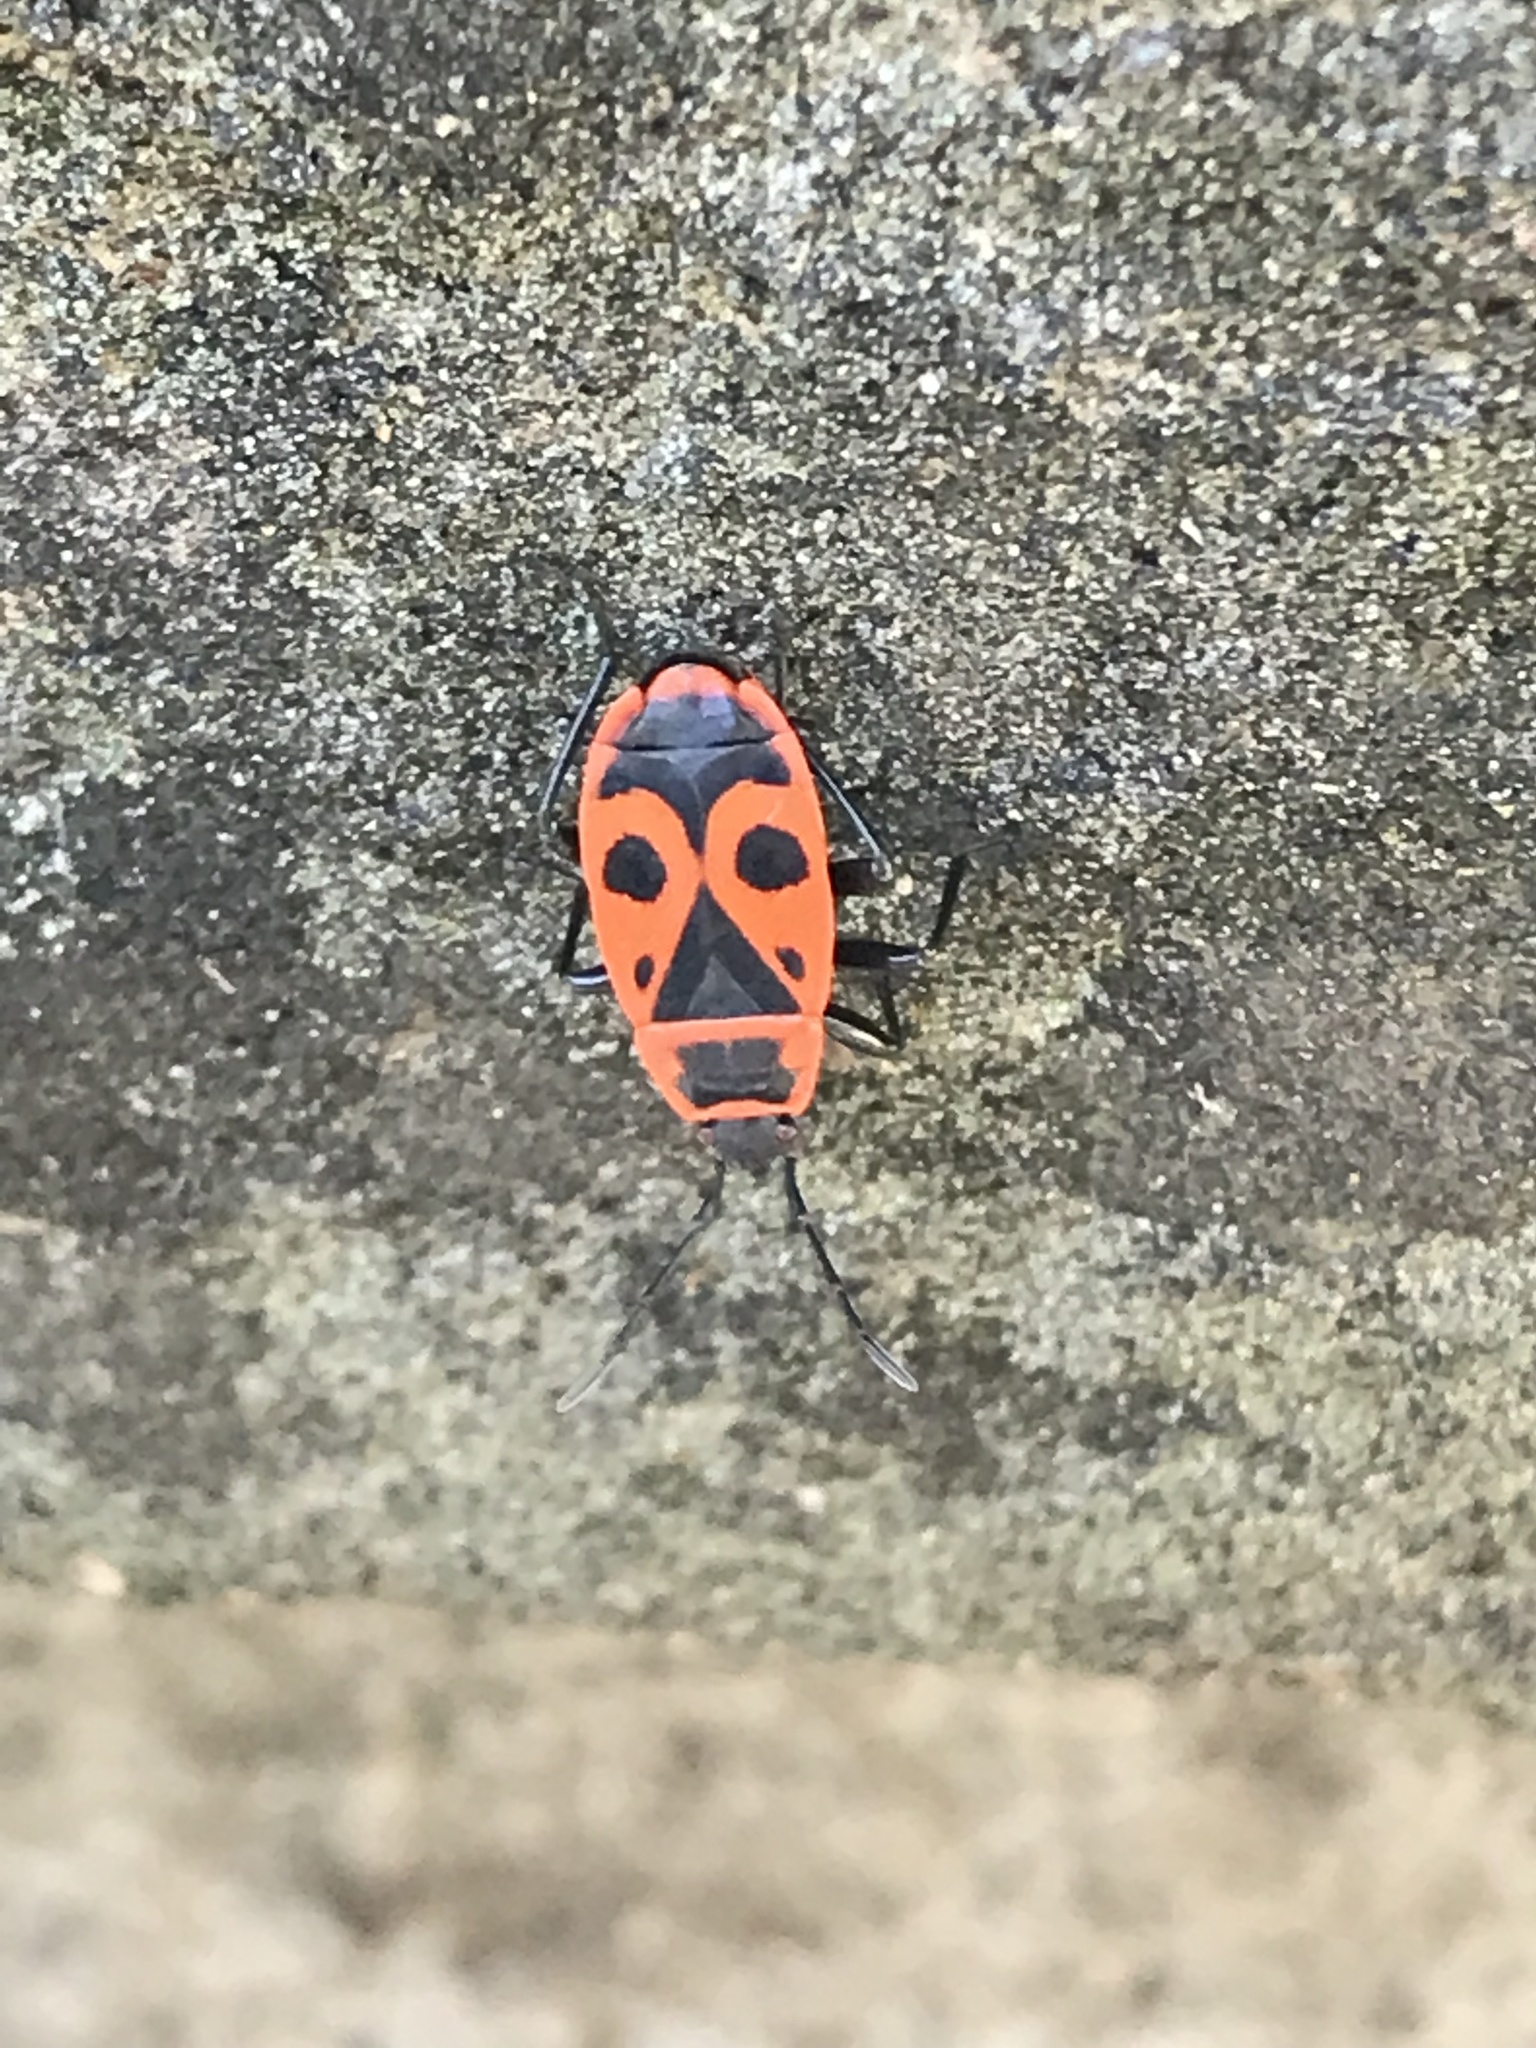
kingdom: Animalia
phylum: Arthropoda
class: Insecta
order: Hemiptera
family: Pyrrhocoridae
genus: Pyrrhocoris
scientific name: Pyrrhocoris apterus
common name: Firebug
